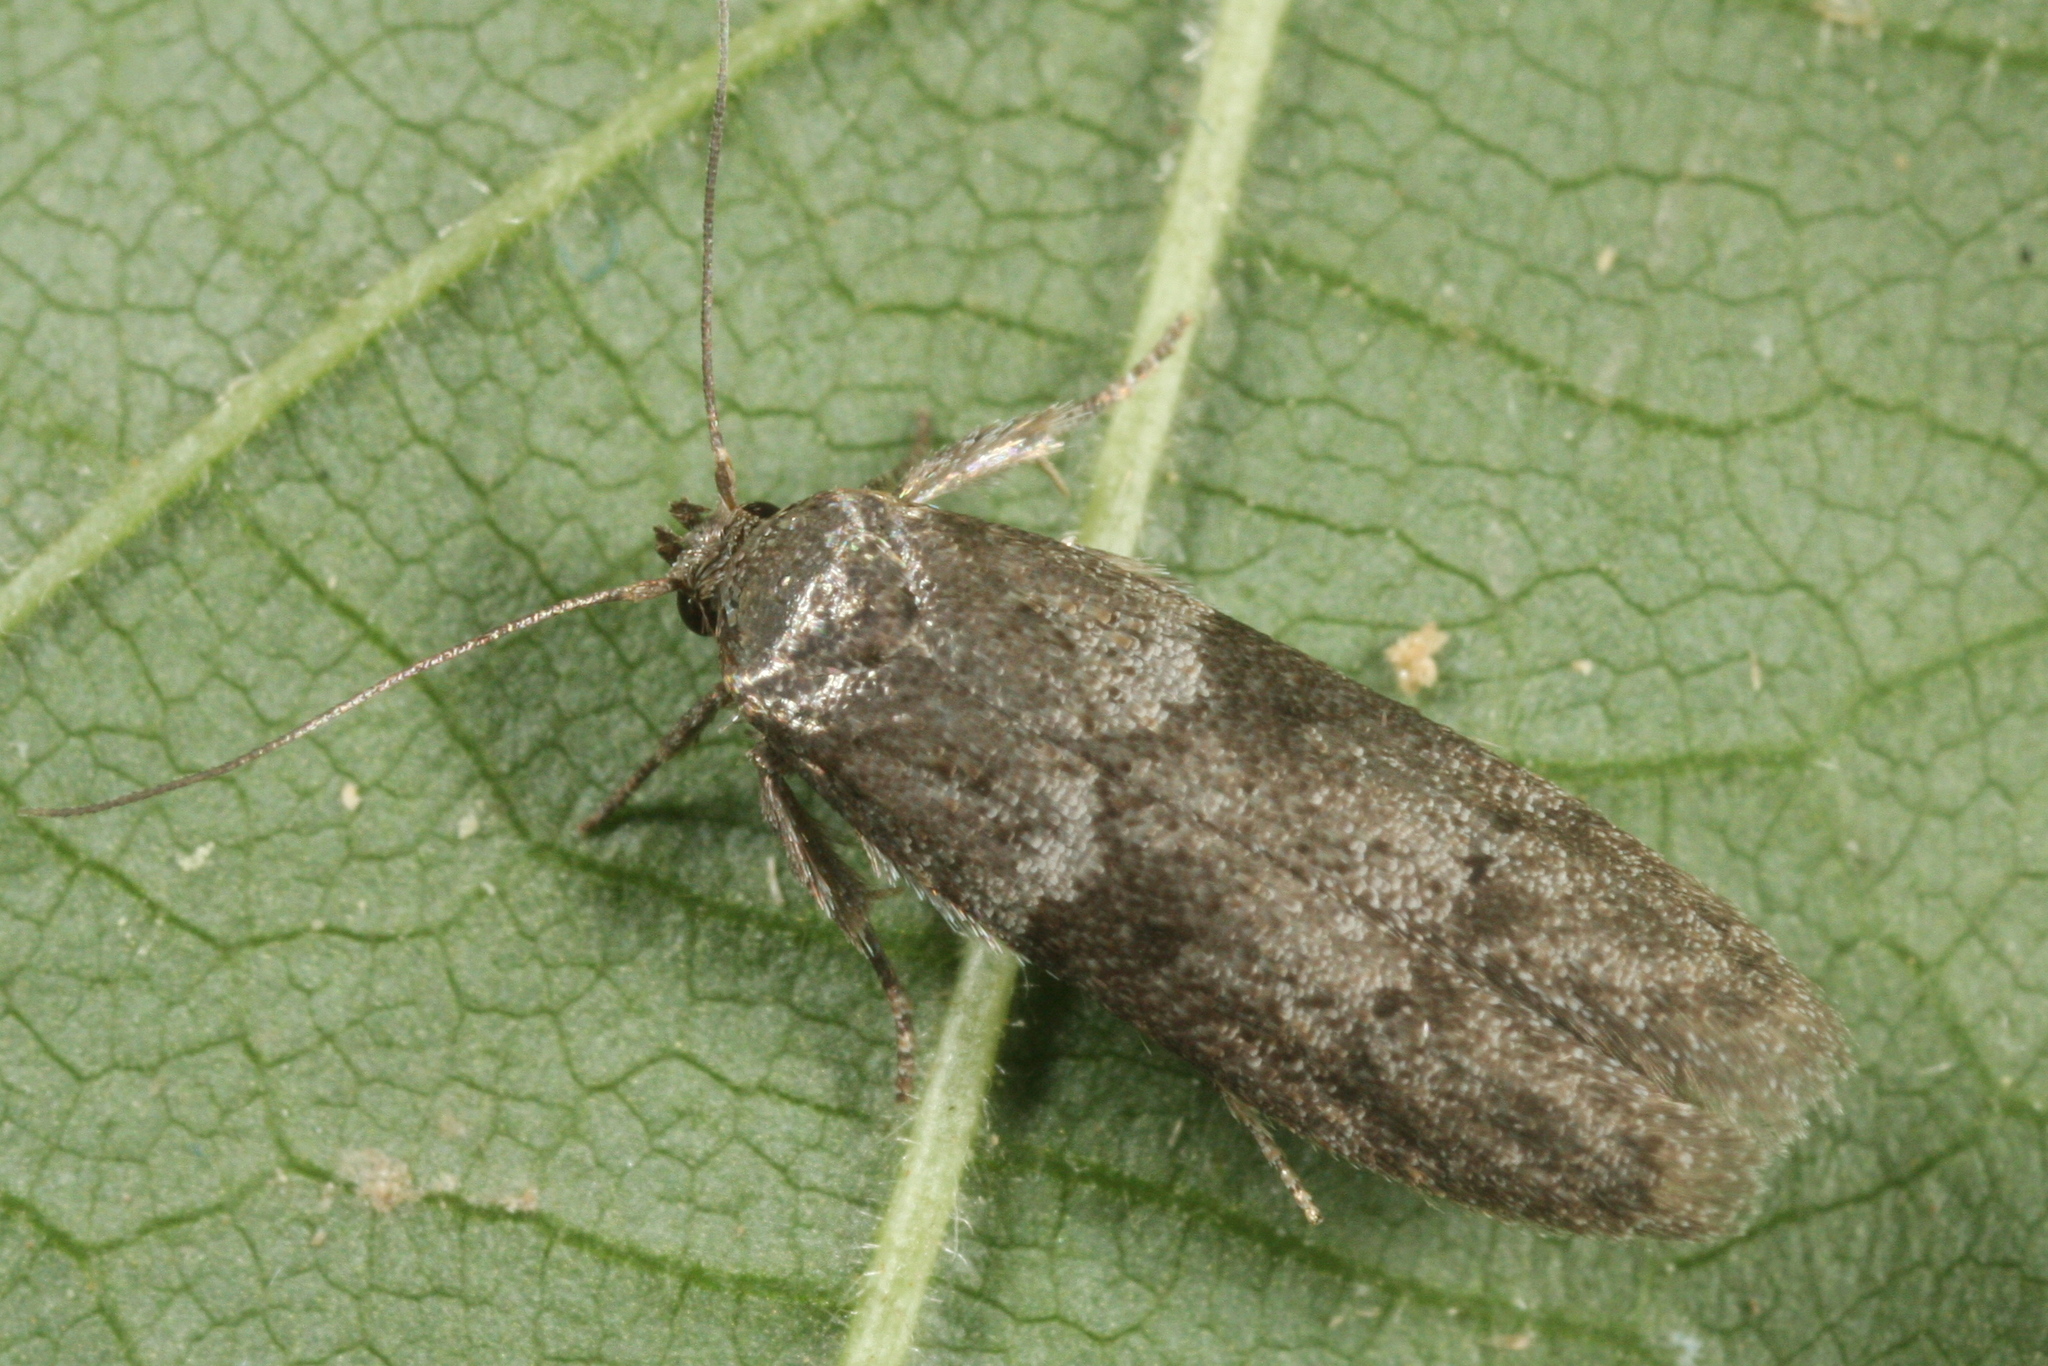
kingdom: Animalia
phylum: Arthropoda
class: Insecta
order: Lepidoptera
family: Blastobasidae
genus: Blastobasis
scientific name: Blastobasis glandulella
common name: Acorn moth
